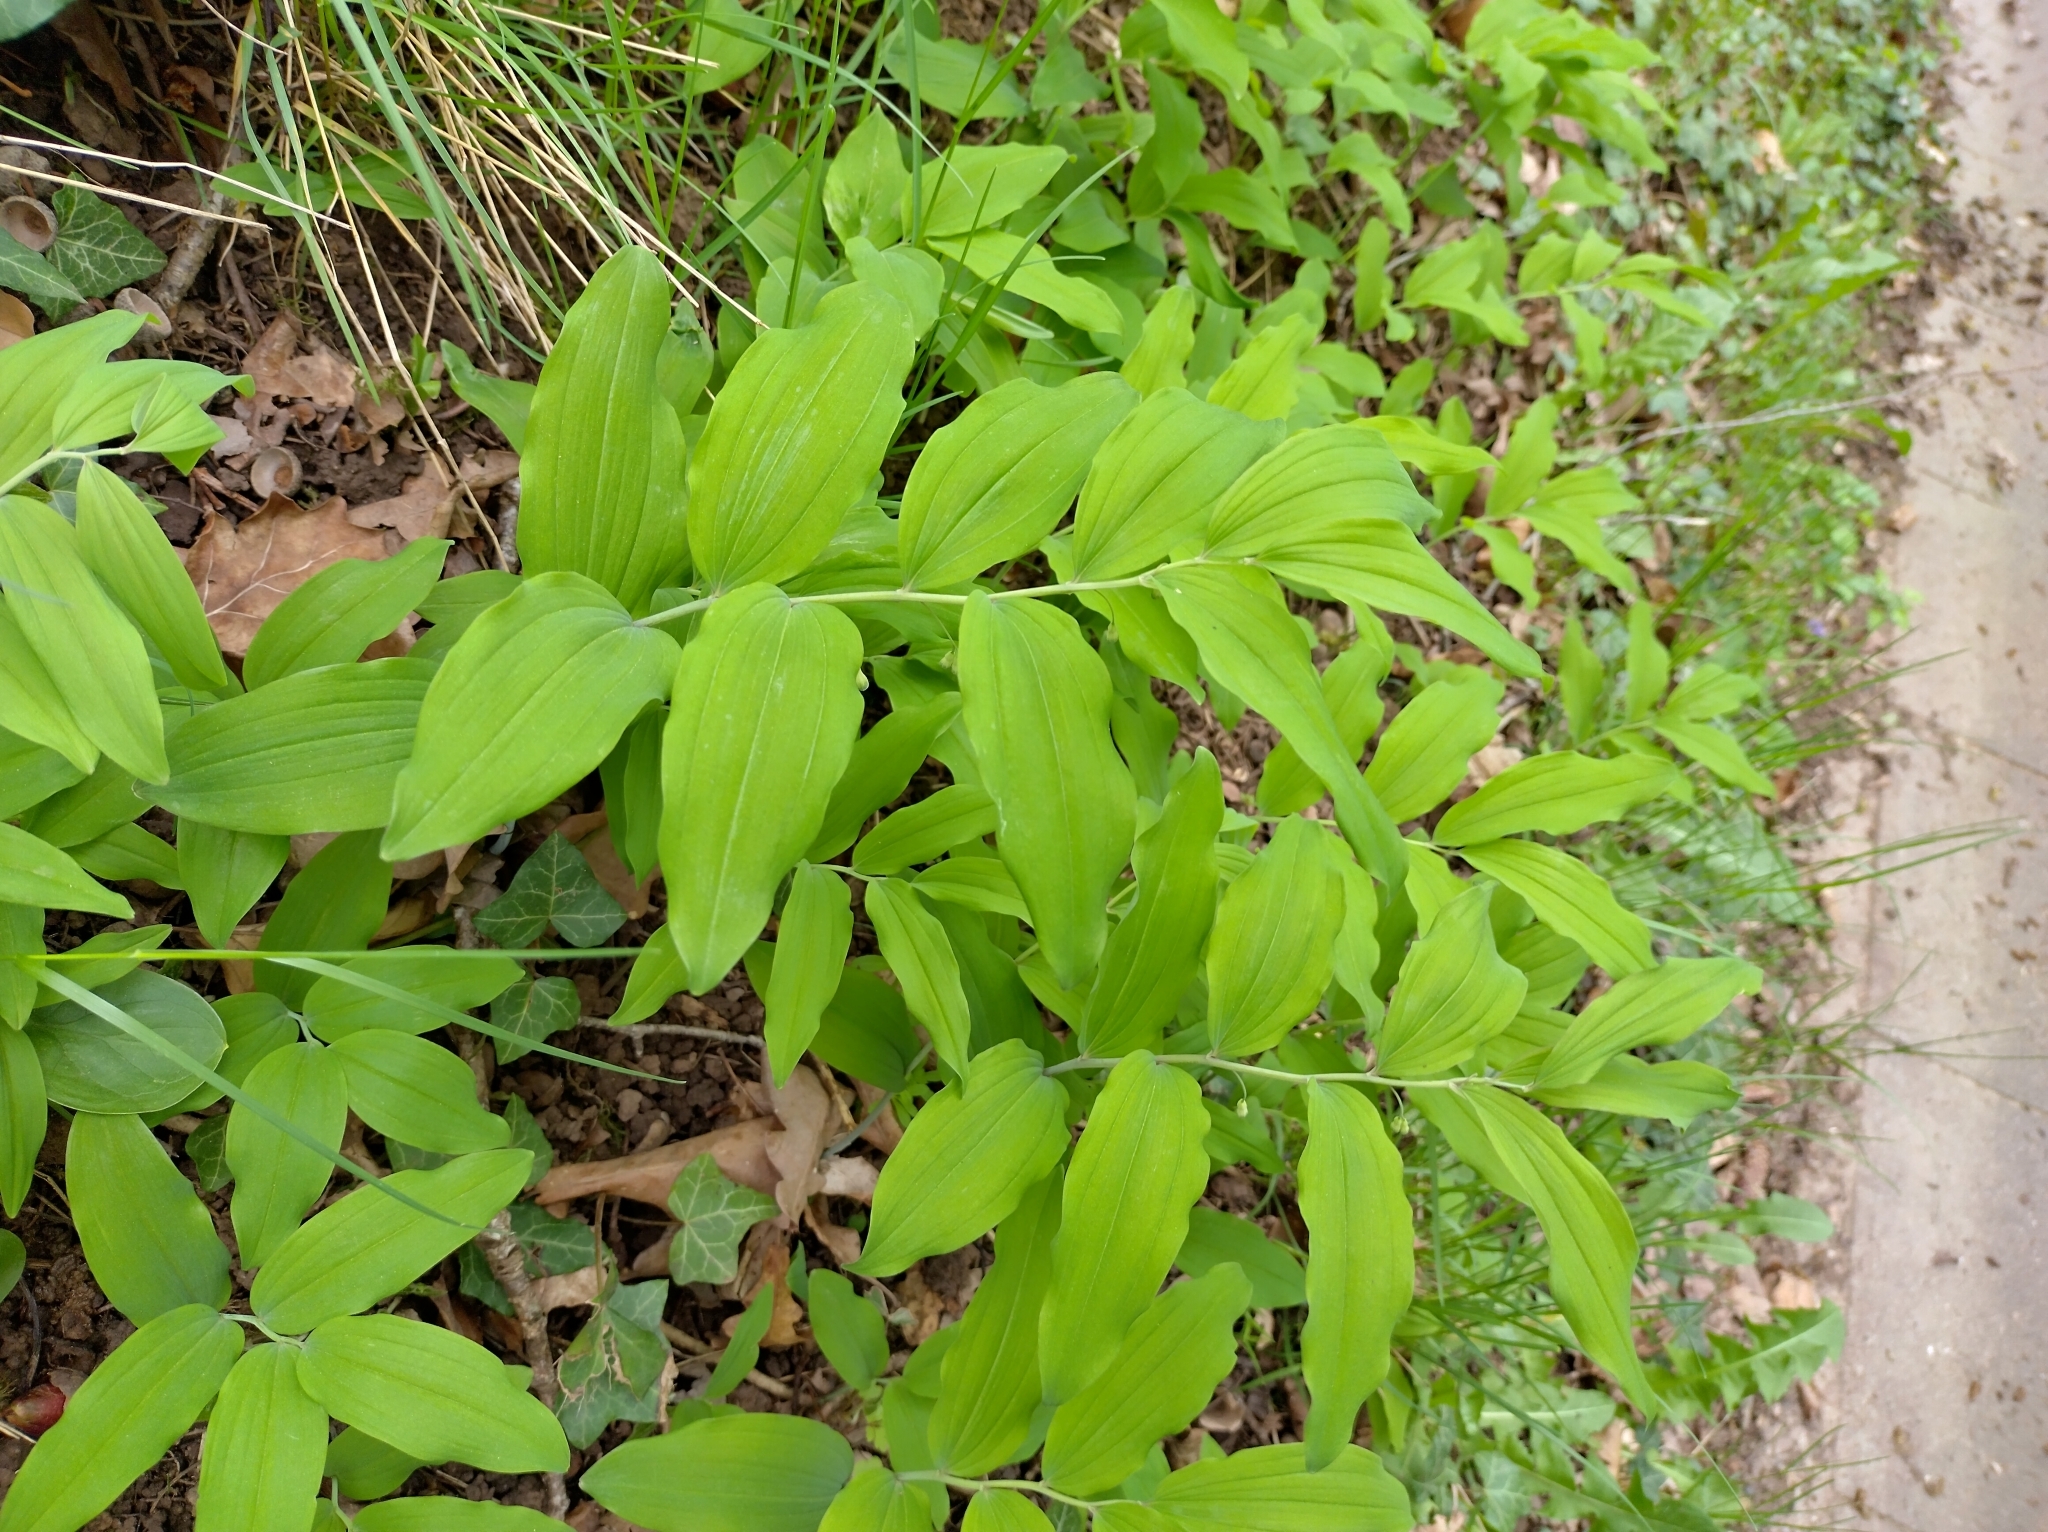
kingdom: Plantae
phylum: Tracheophyta
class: Liliopsida
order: Asparagales
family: Asparagaceae
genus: Polygonatum
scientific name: Polygonatum multiflorum
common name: Solomon's-seal
